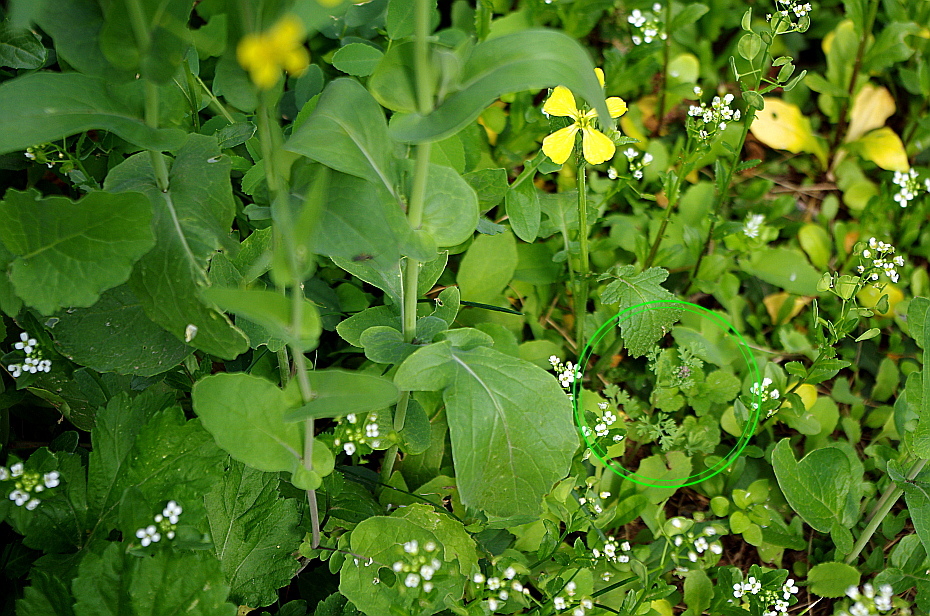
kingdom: Plantae
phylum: Tracheophyta
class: Magnoliopsida
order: Ranunculales
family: Papaveraceae
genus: Fumaria
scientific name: Fumaria officinalis
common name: Common fumitory
